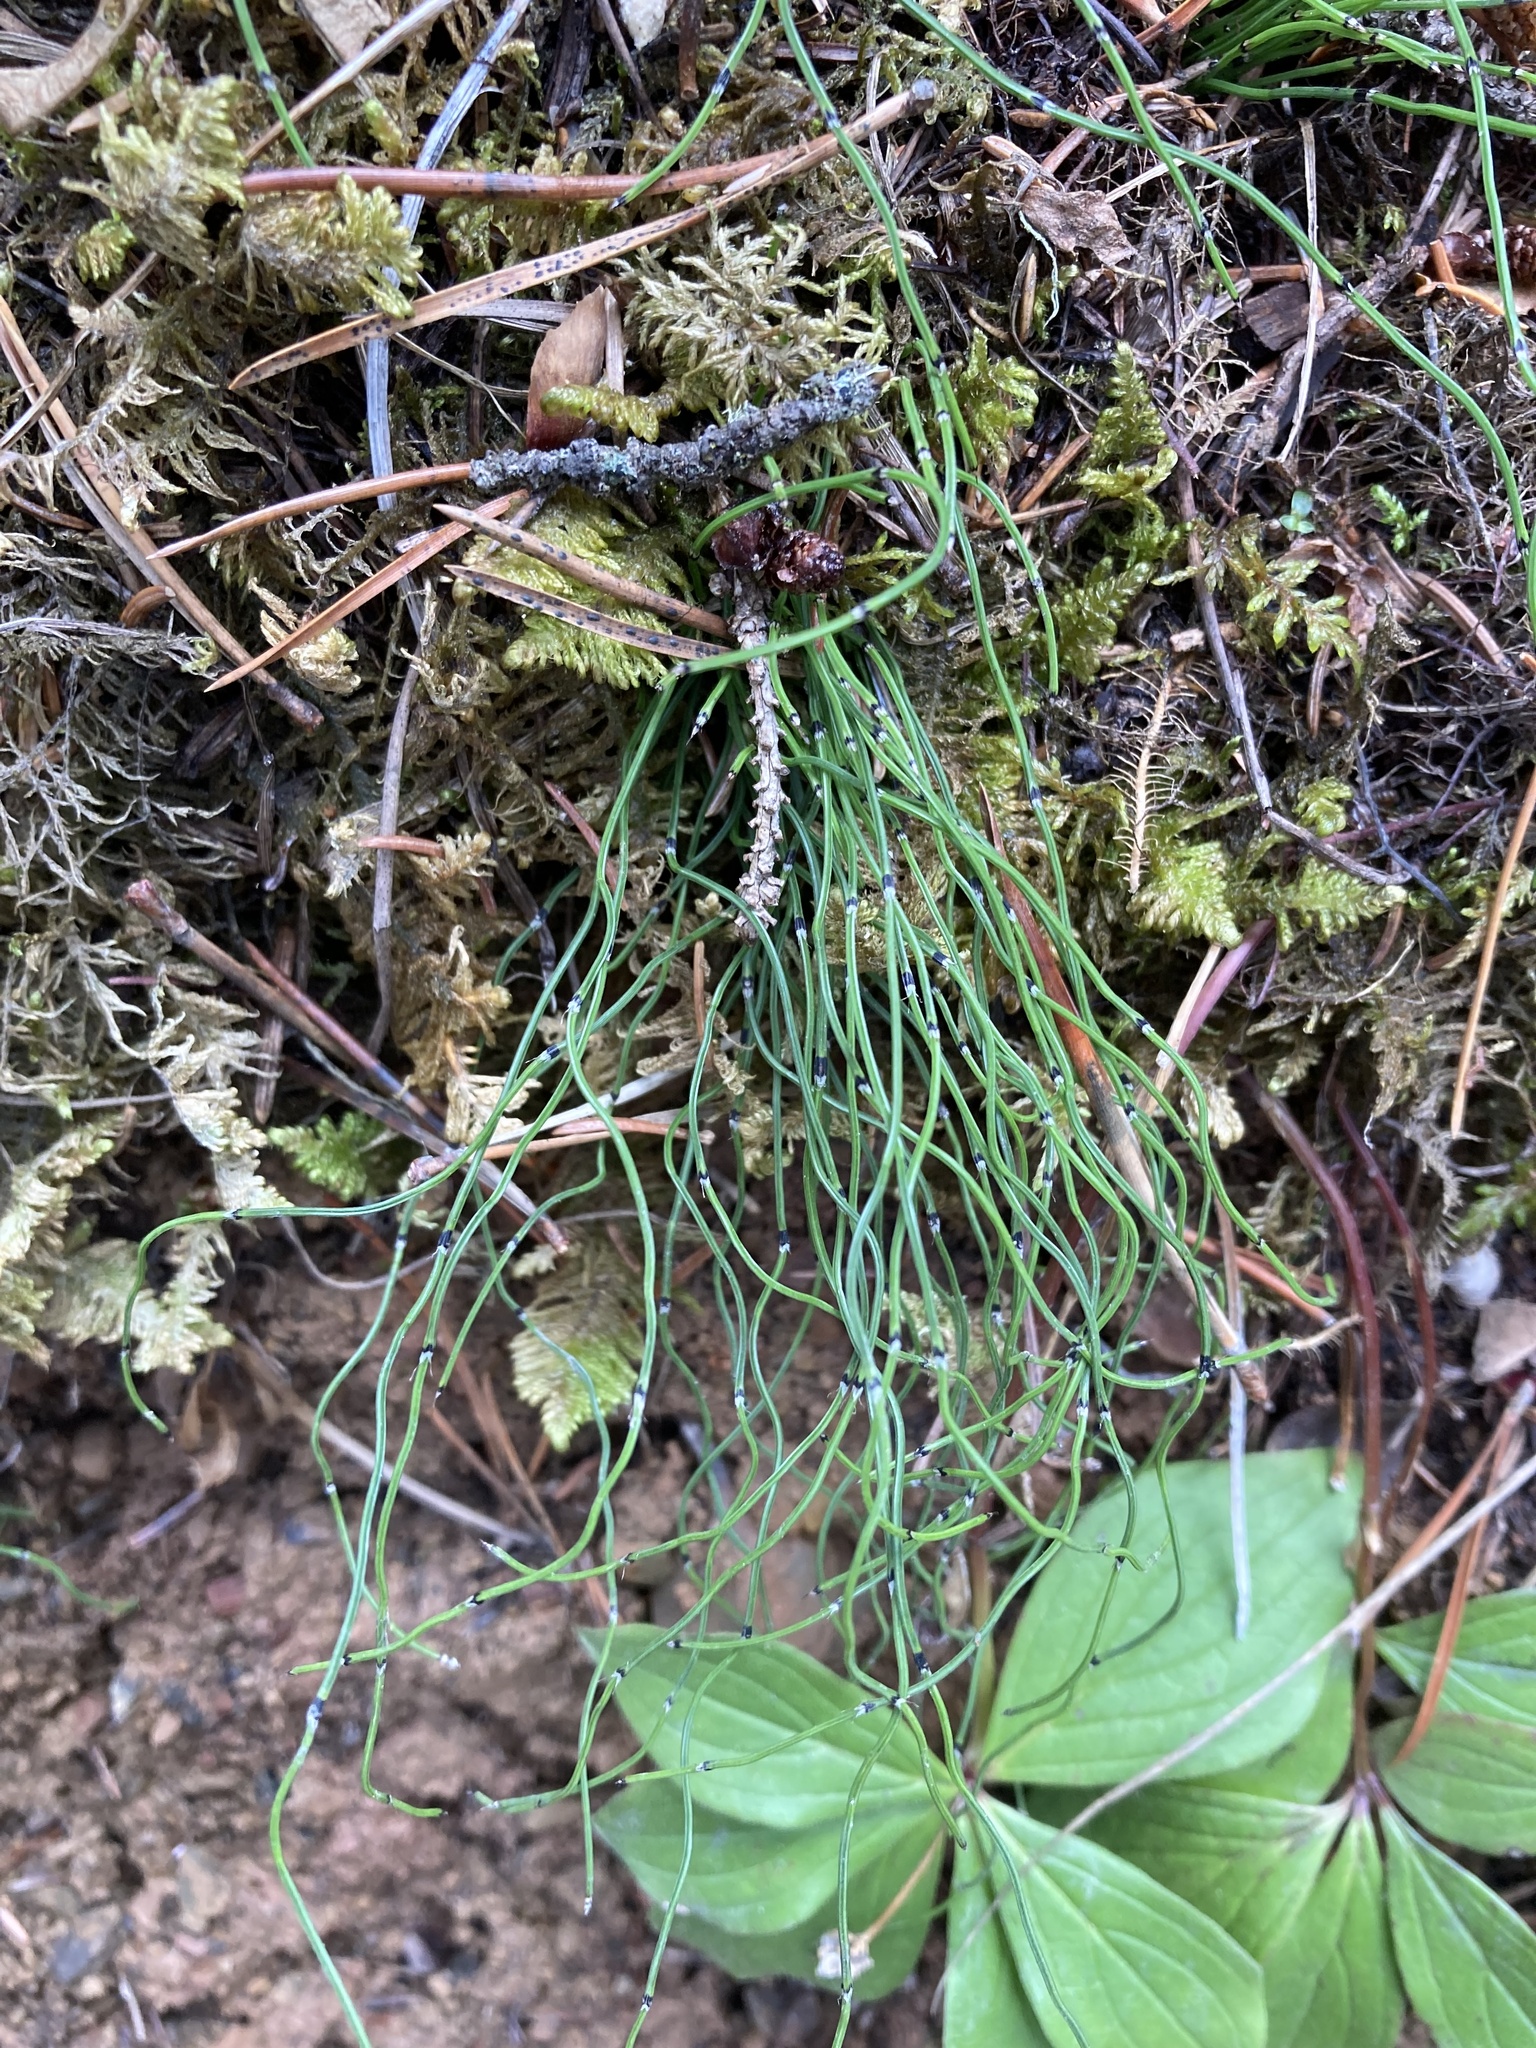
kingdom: Plantae
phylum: Tracheophyta
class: Polypodiopsida
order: Equisetales
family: Equisetaceae
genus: Equisetum
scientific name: Equisetum scirpoides
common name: Delicate horsetail
